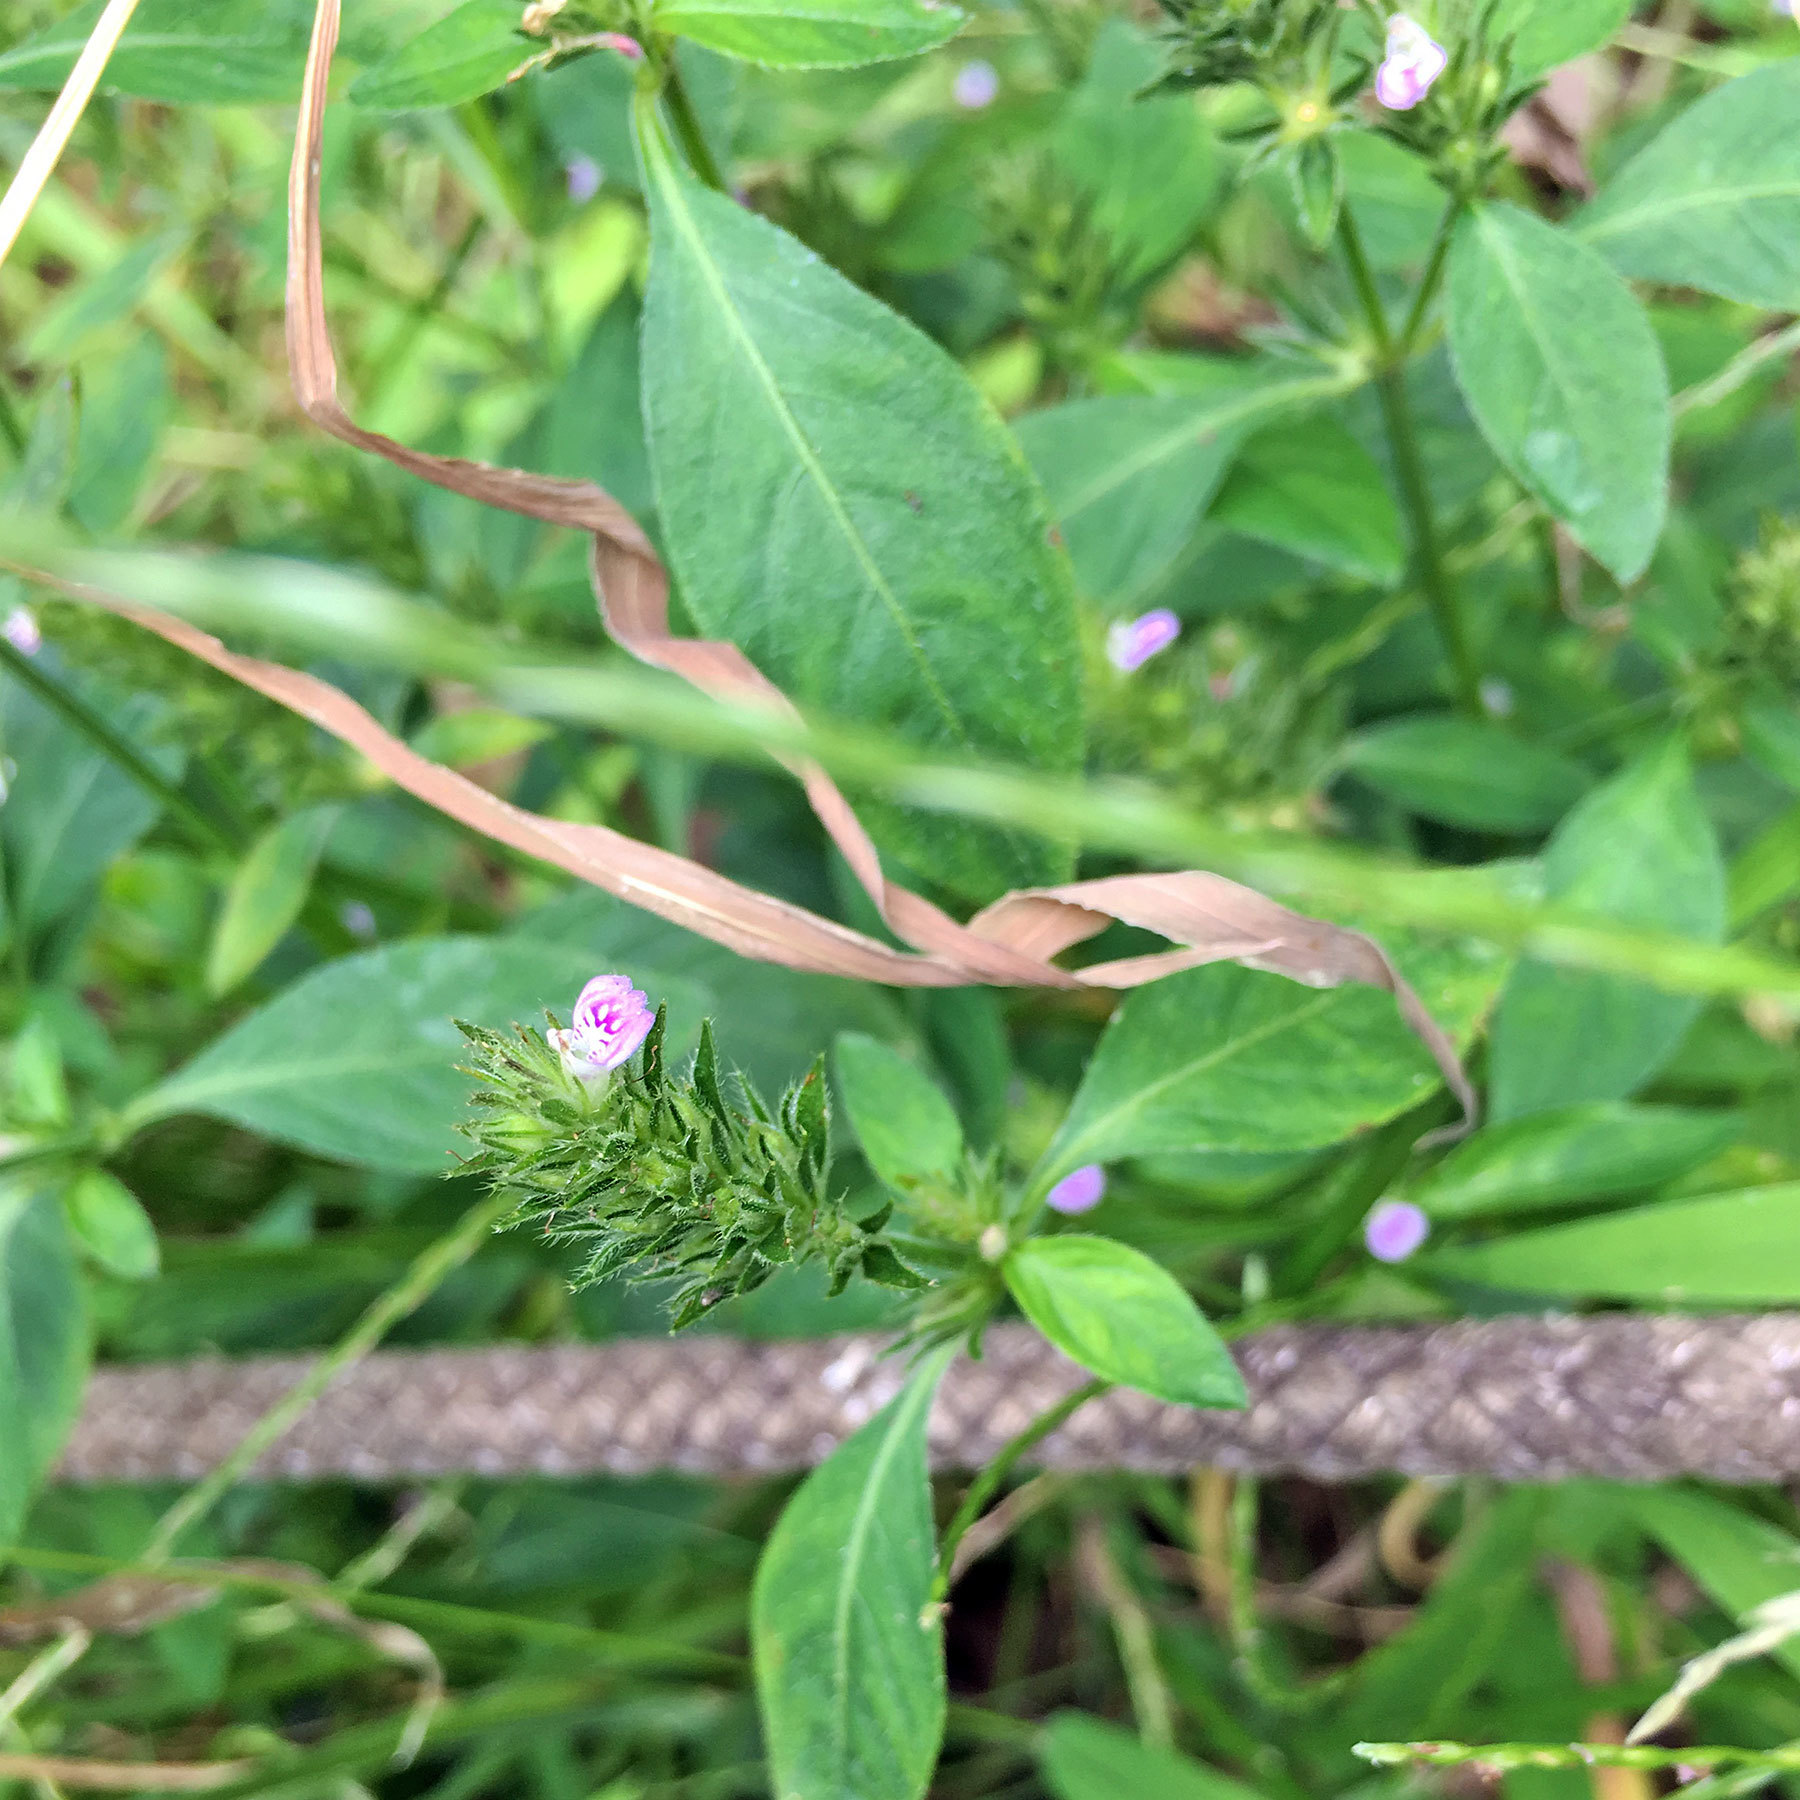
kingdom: Plantae
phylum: Tracheophyta
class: Magnoliopsida
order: Lamiales
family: Acanthaceae
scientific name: Acanthaceae
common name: Acanthaceae
